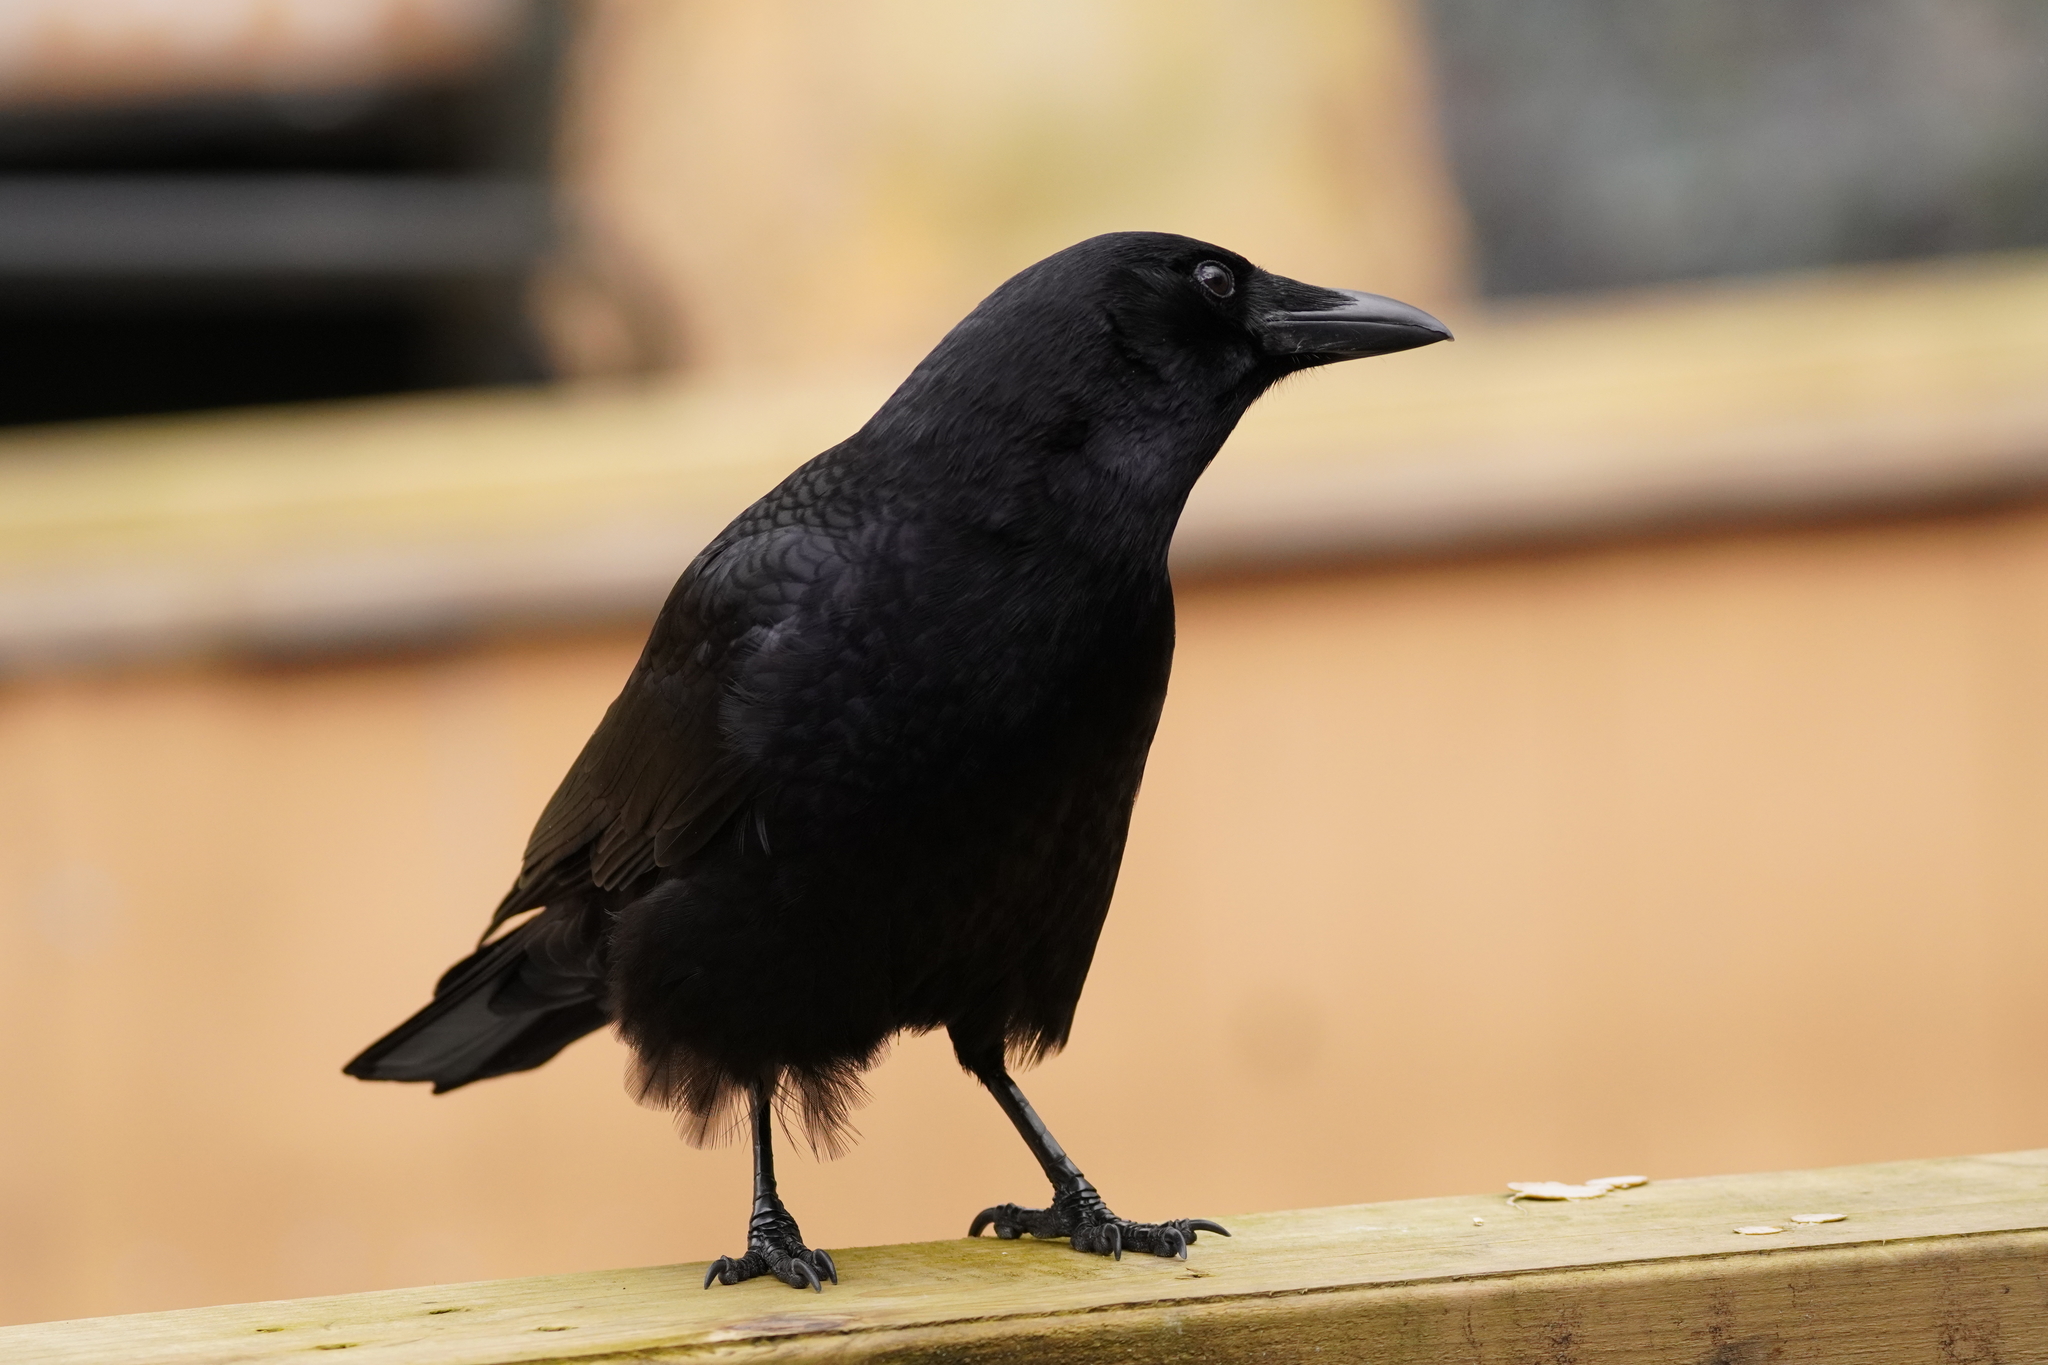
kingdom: Animalia
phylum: Chordata
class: Aves
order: Passeriformes
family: Corvidae
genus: Corvus
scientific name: Corvus brachyrhynchos
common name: American crow
